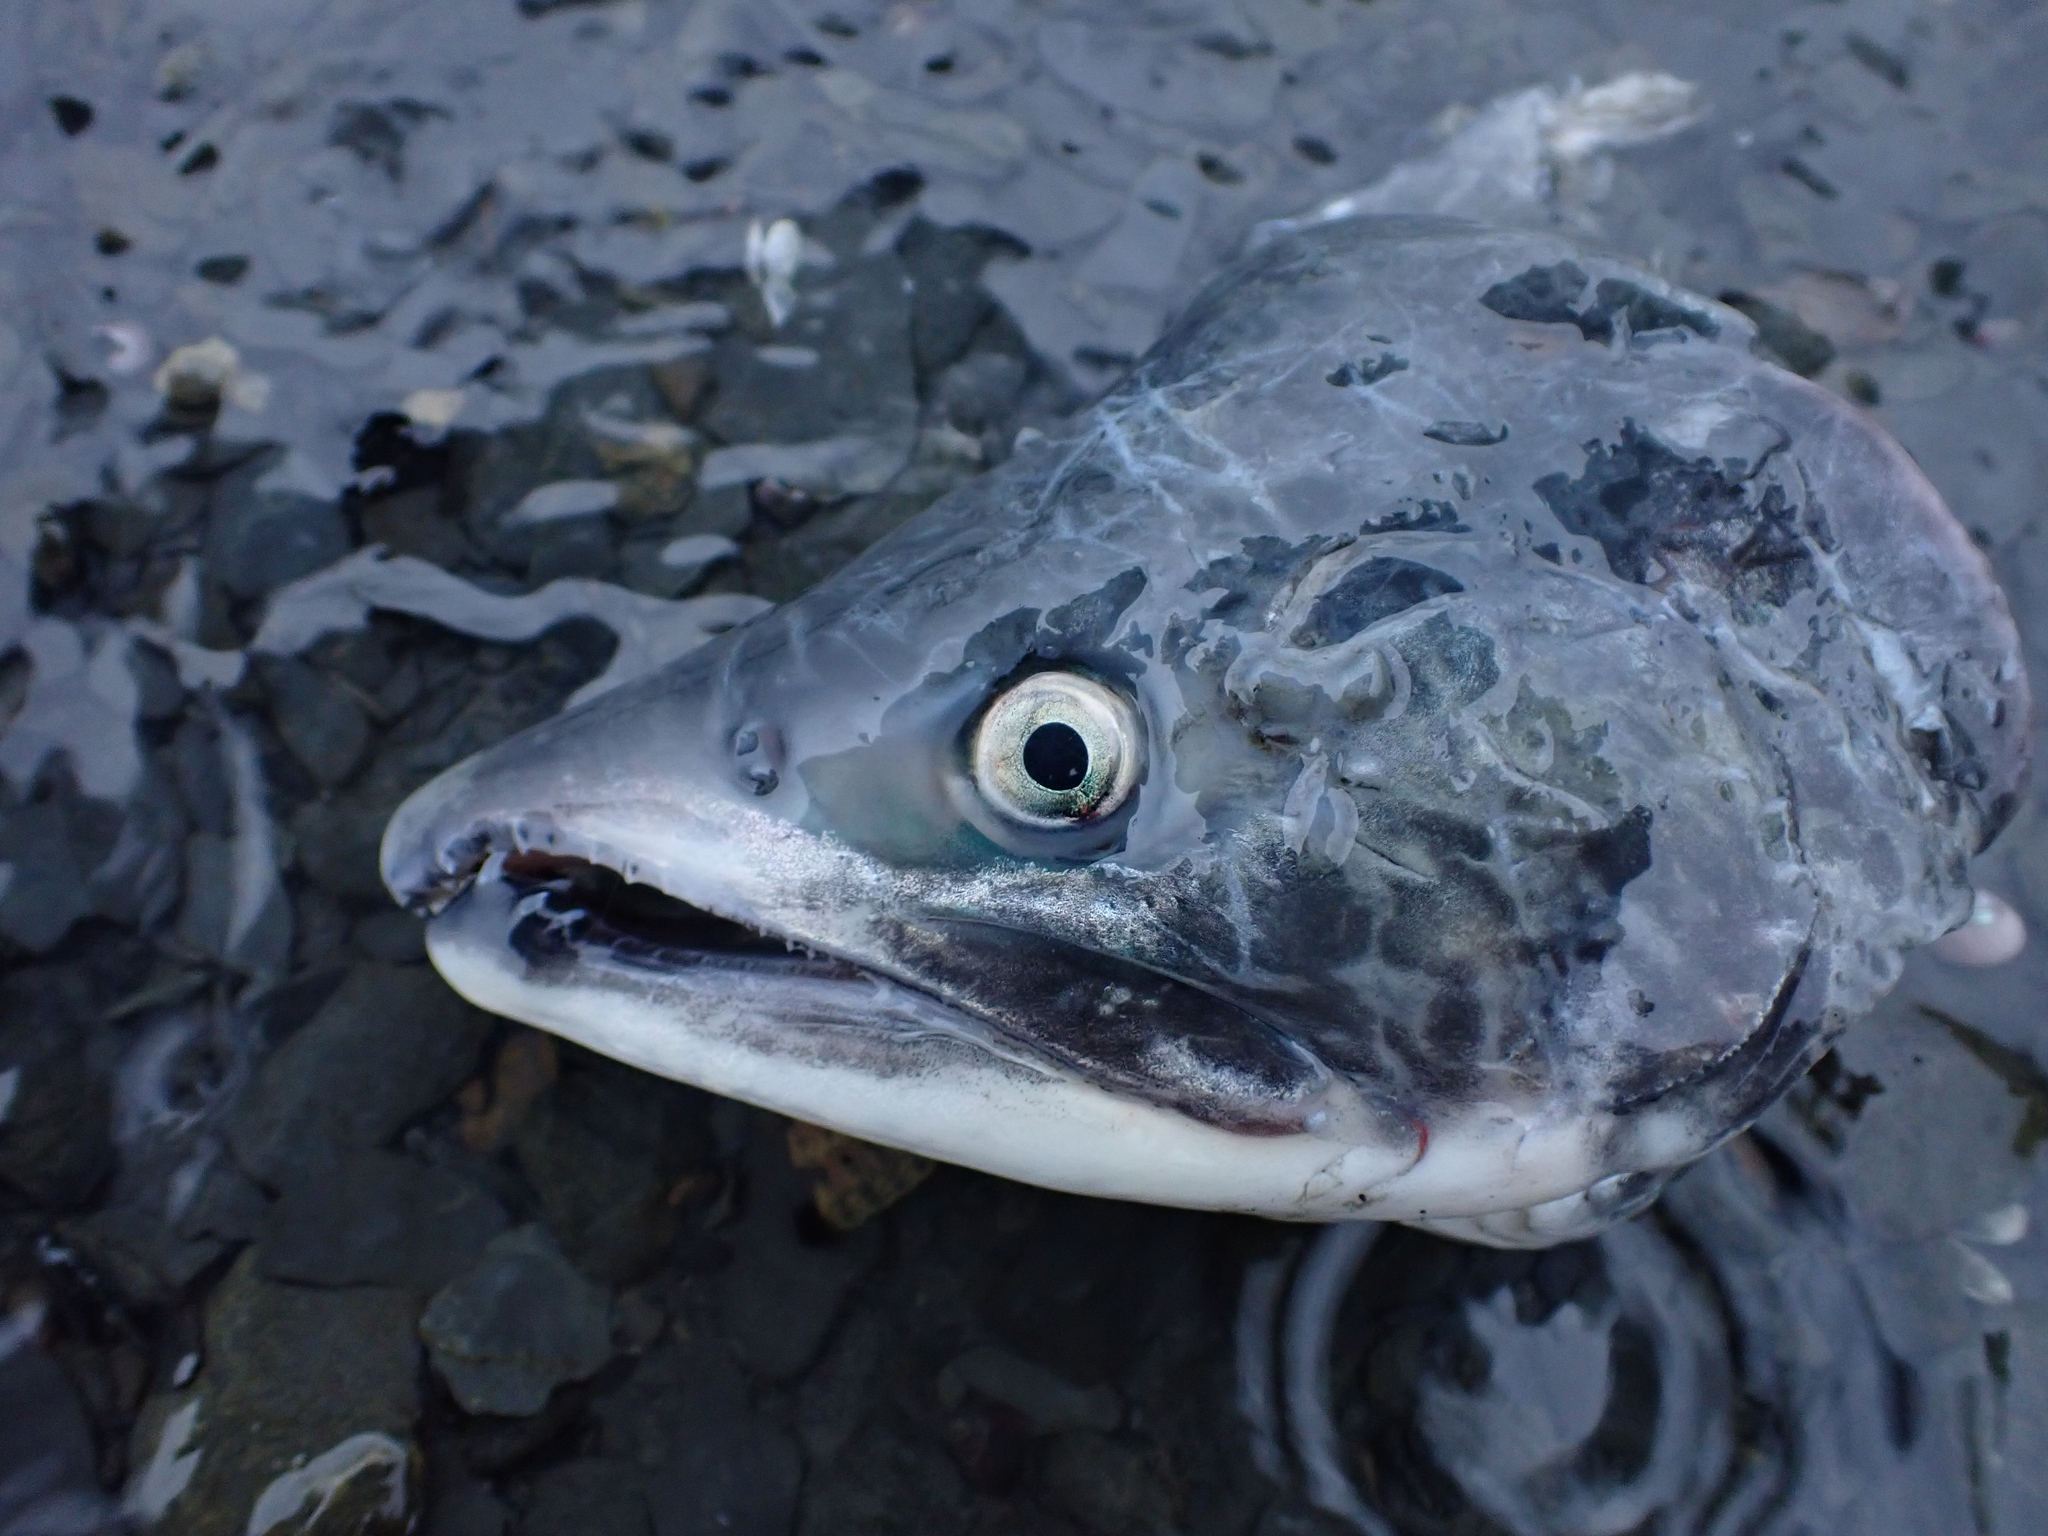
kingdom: Animalia
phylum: Chordata
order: Salmoniformes
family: Salmonidae
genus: Oncorhynchus
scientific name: Oncorhynchus gorbuscha
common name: Humpback salmon
